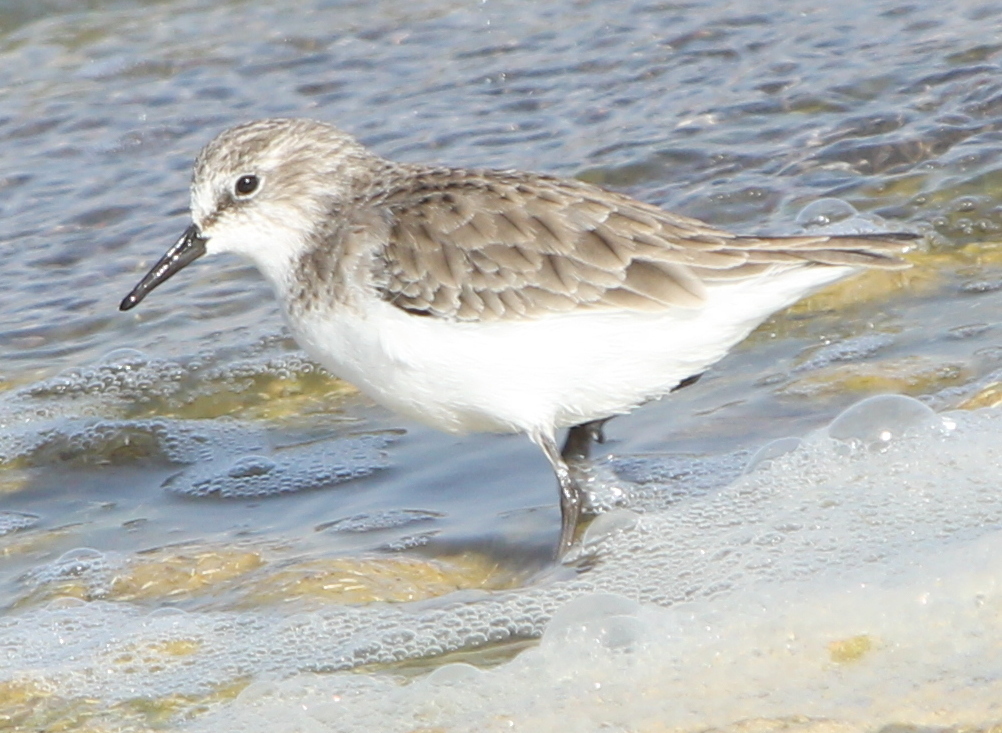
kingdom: Animalia
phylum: Chordata
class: Aves
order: Charadriiformes
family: Scolopacidae
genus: Calidris
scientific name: Calidris minuta
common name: Little stint
